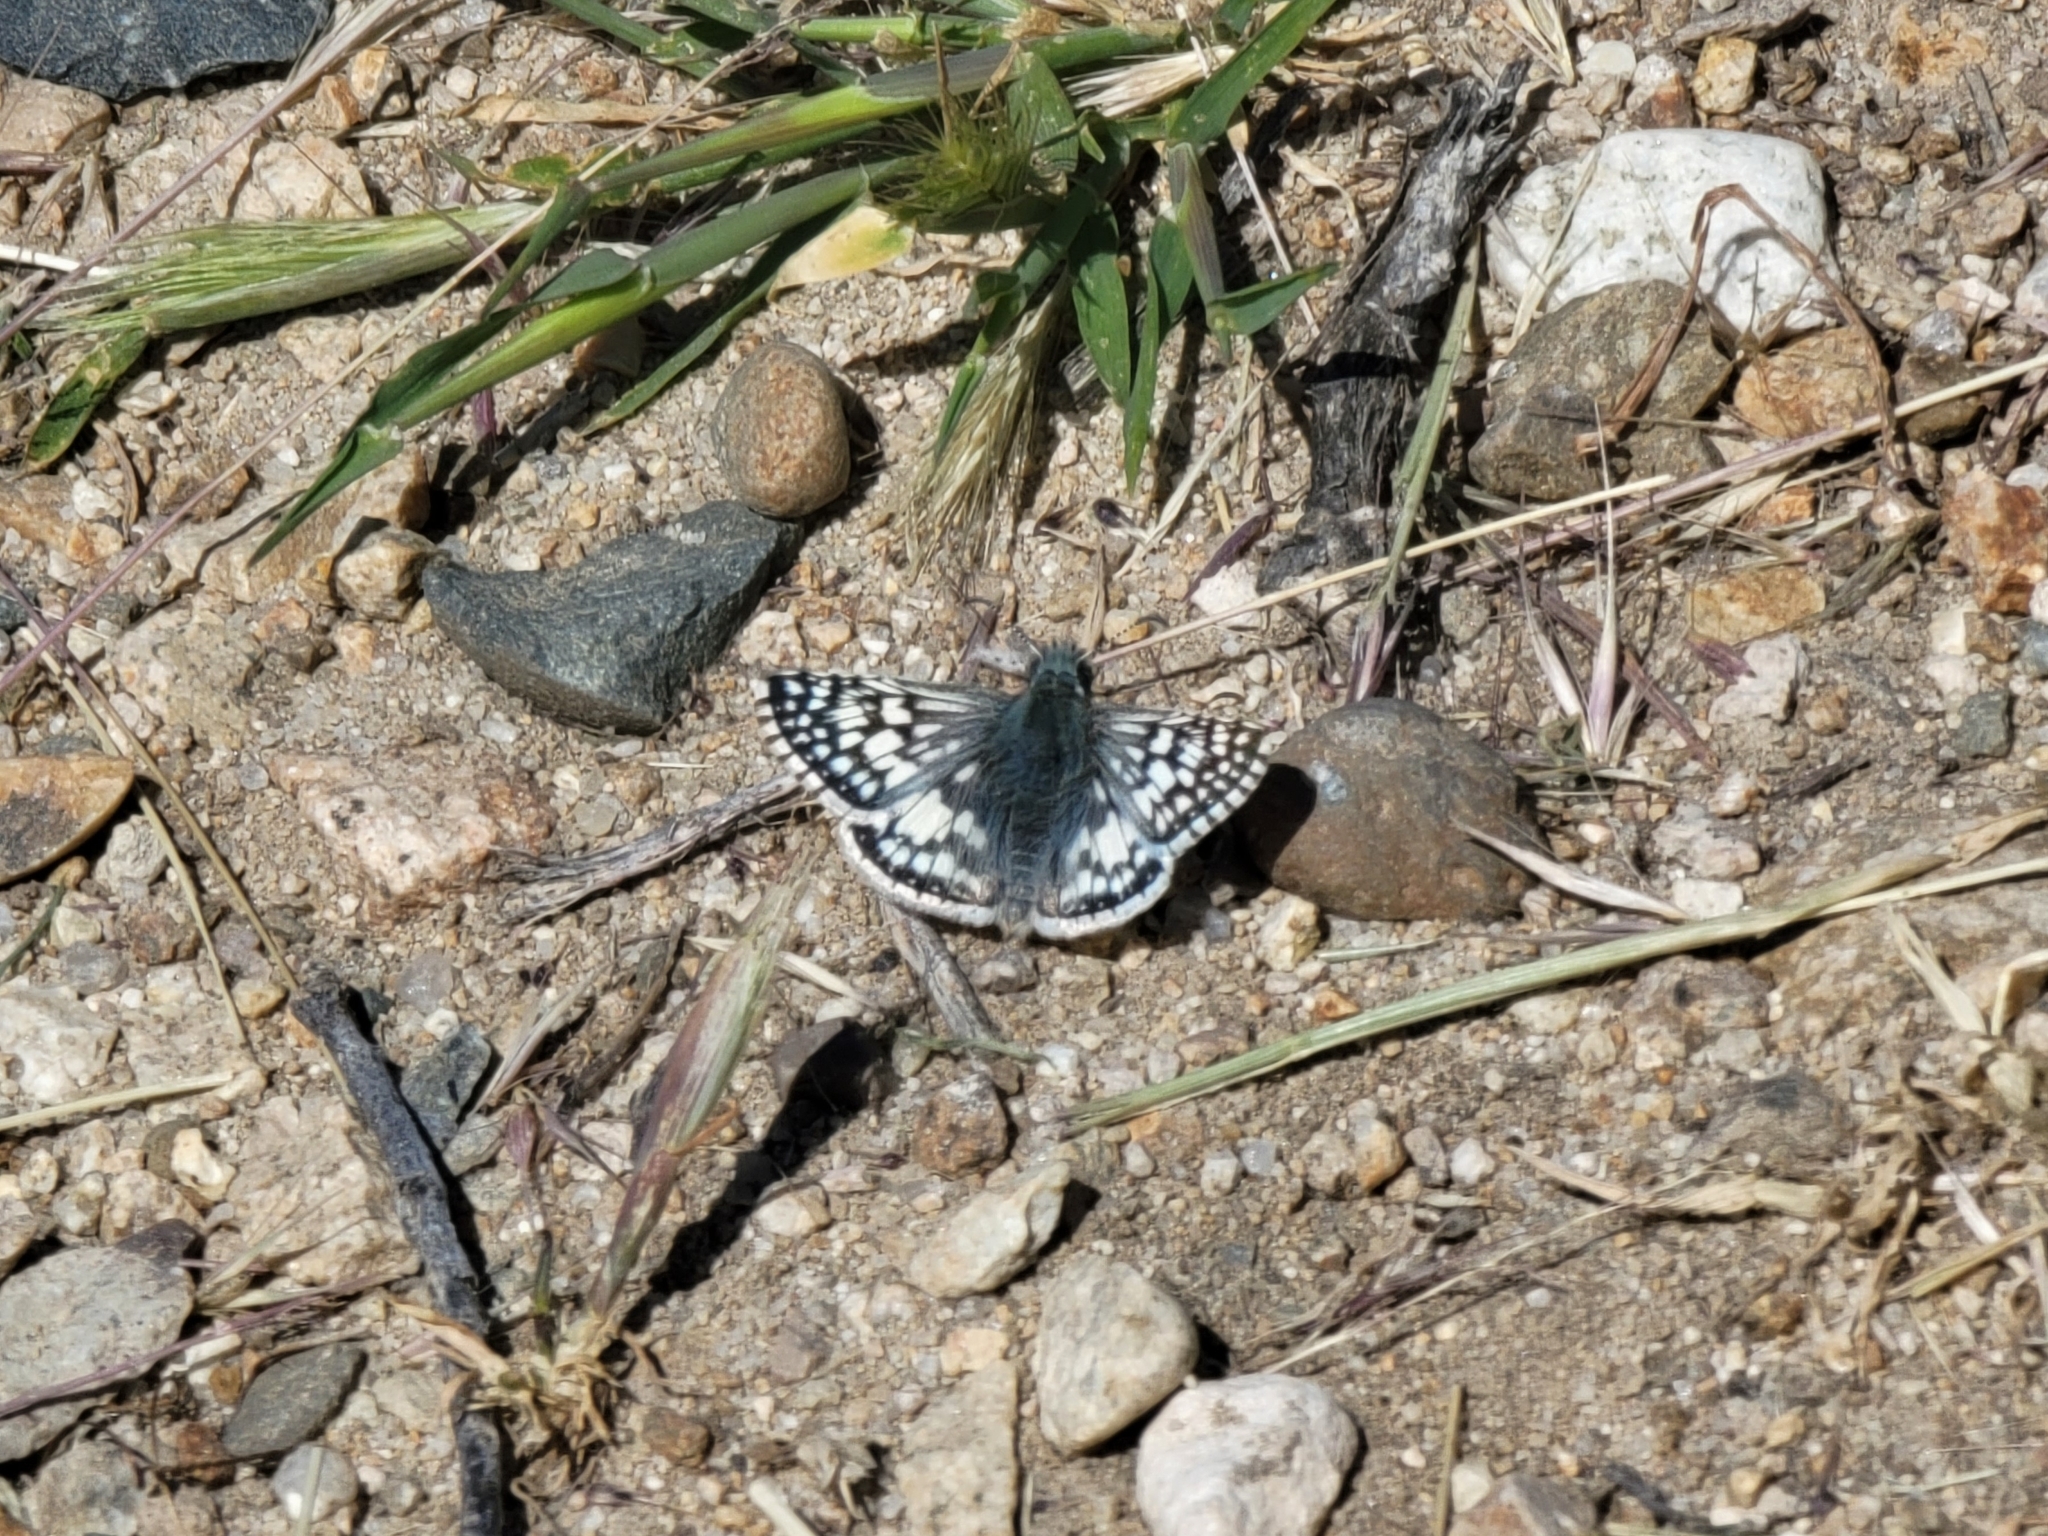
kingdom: Animalia
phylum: Arthropoda
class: Insecta
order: Lepidoptera
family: Hesperiidae
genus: Burnsius
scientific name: Burnsius communis
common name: Common checkered-skipper
